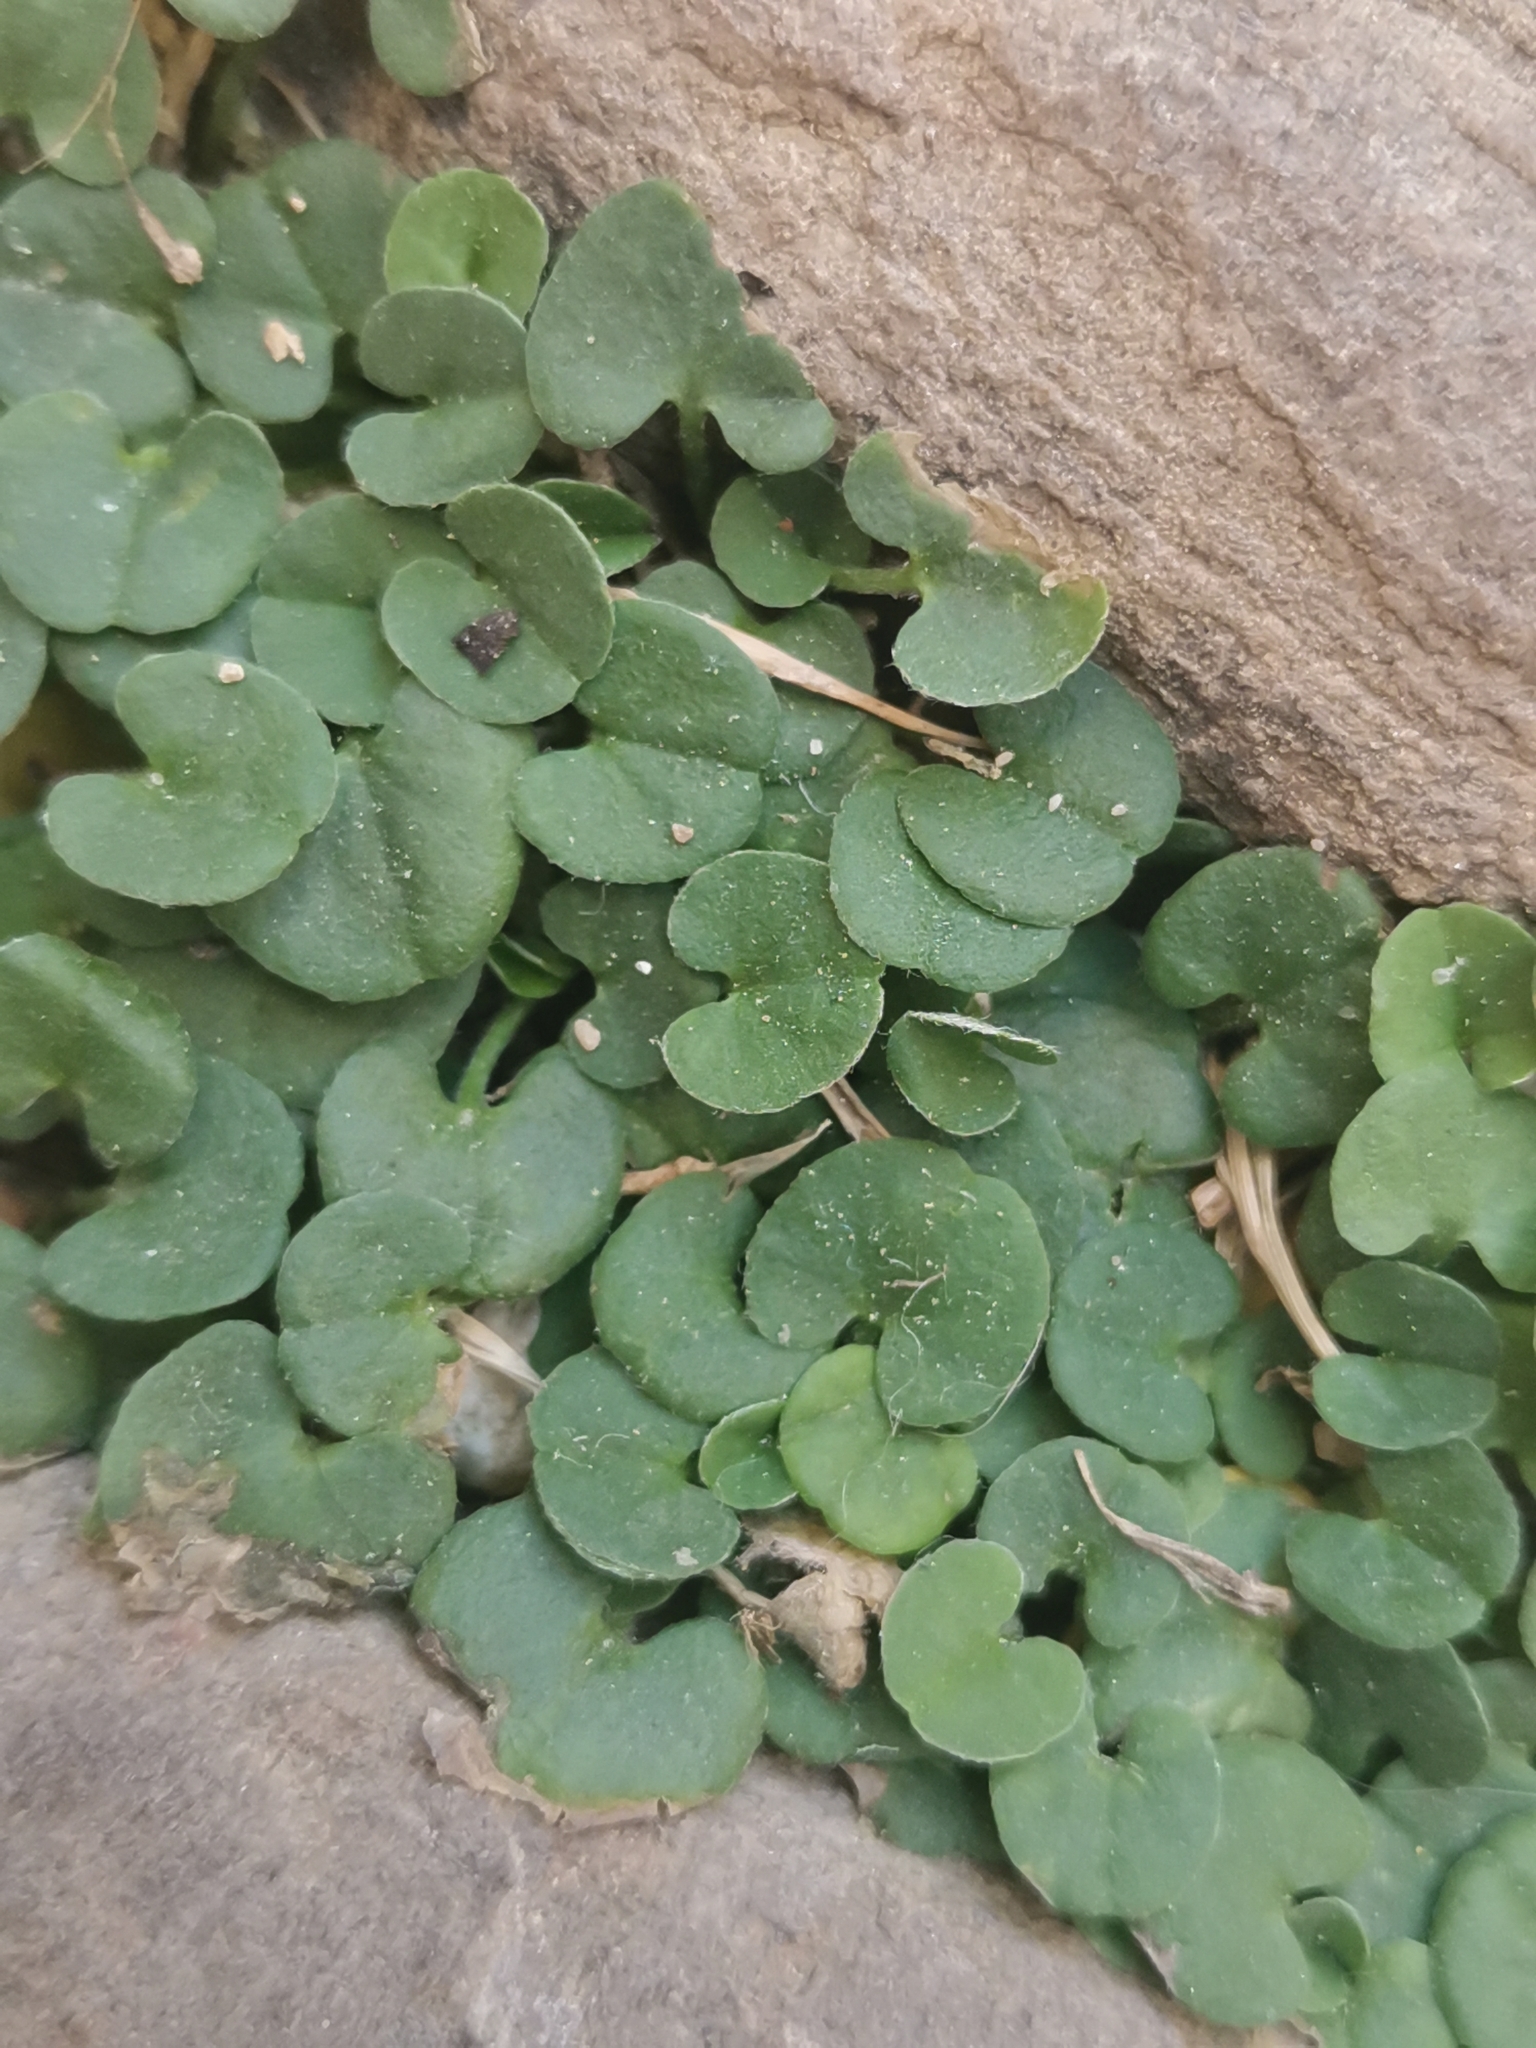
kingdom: Plantae
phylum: Tracheophyta
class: Magnoliopsida
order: Solanales
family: Convolvulaceae
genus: Dichondra
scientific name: Dichondra micrantha
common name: Kidneyweed
